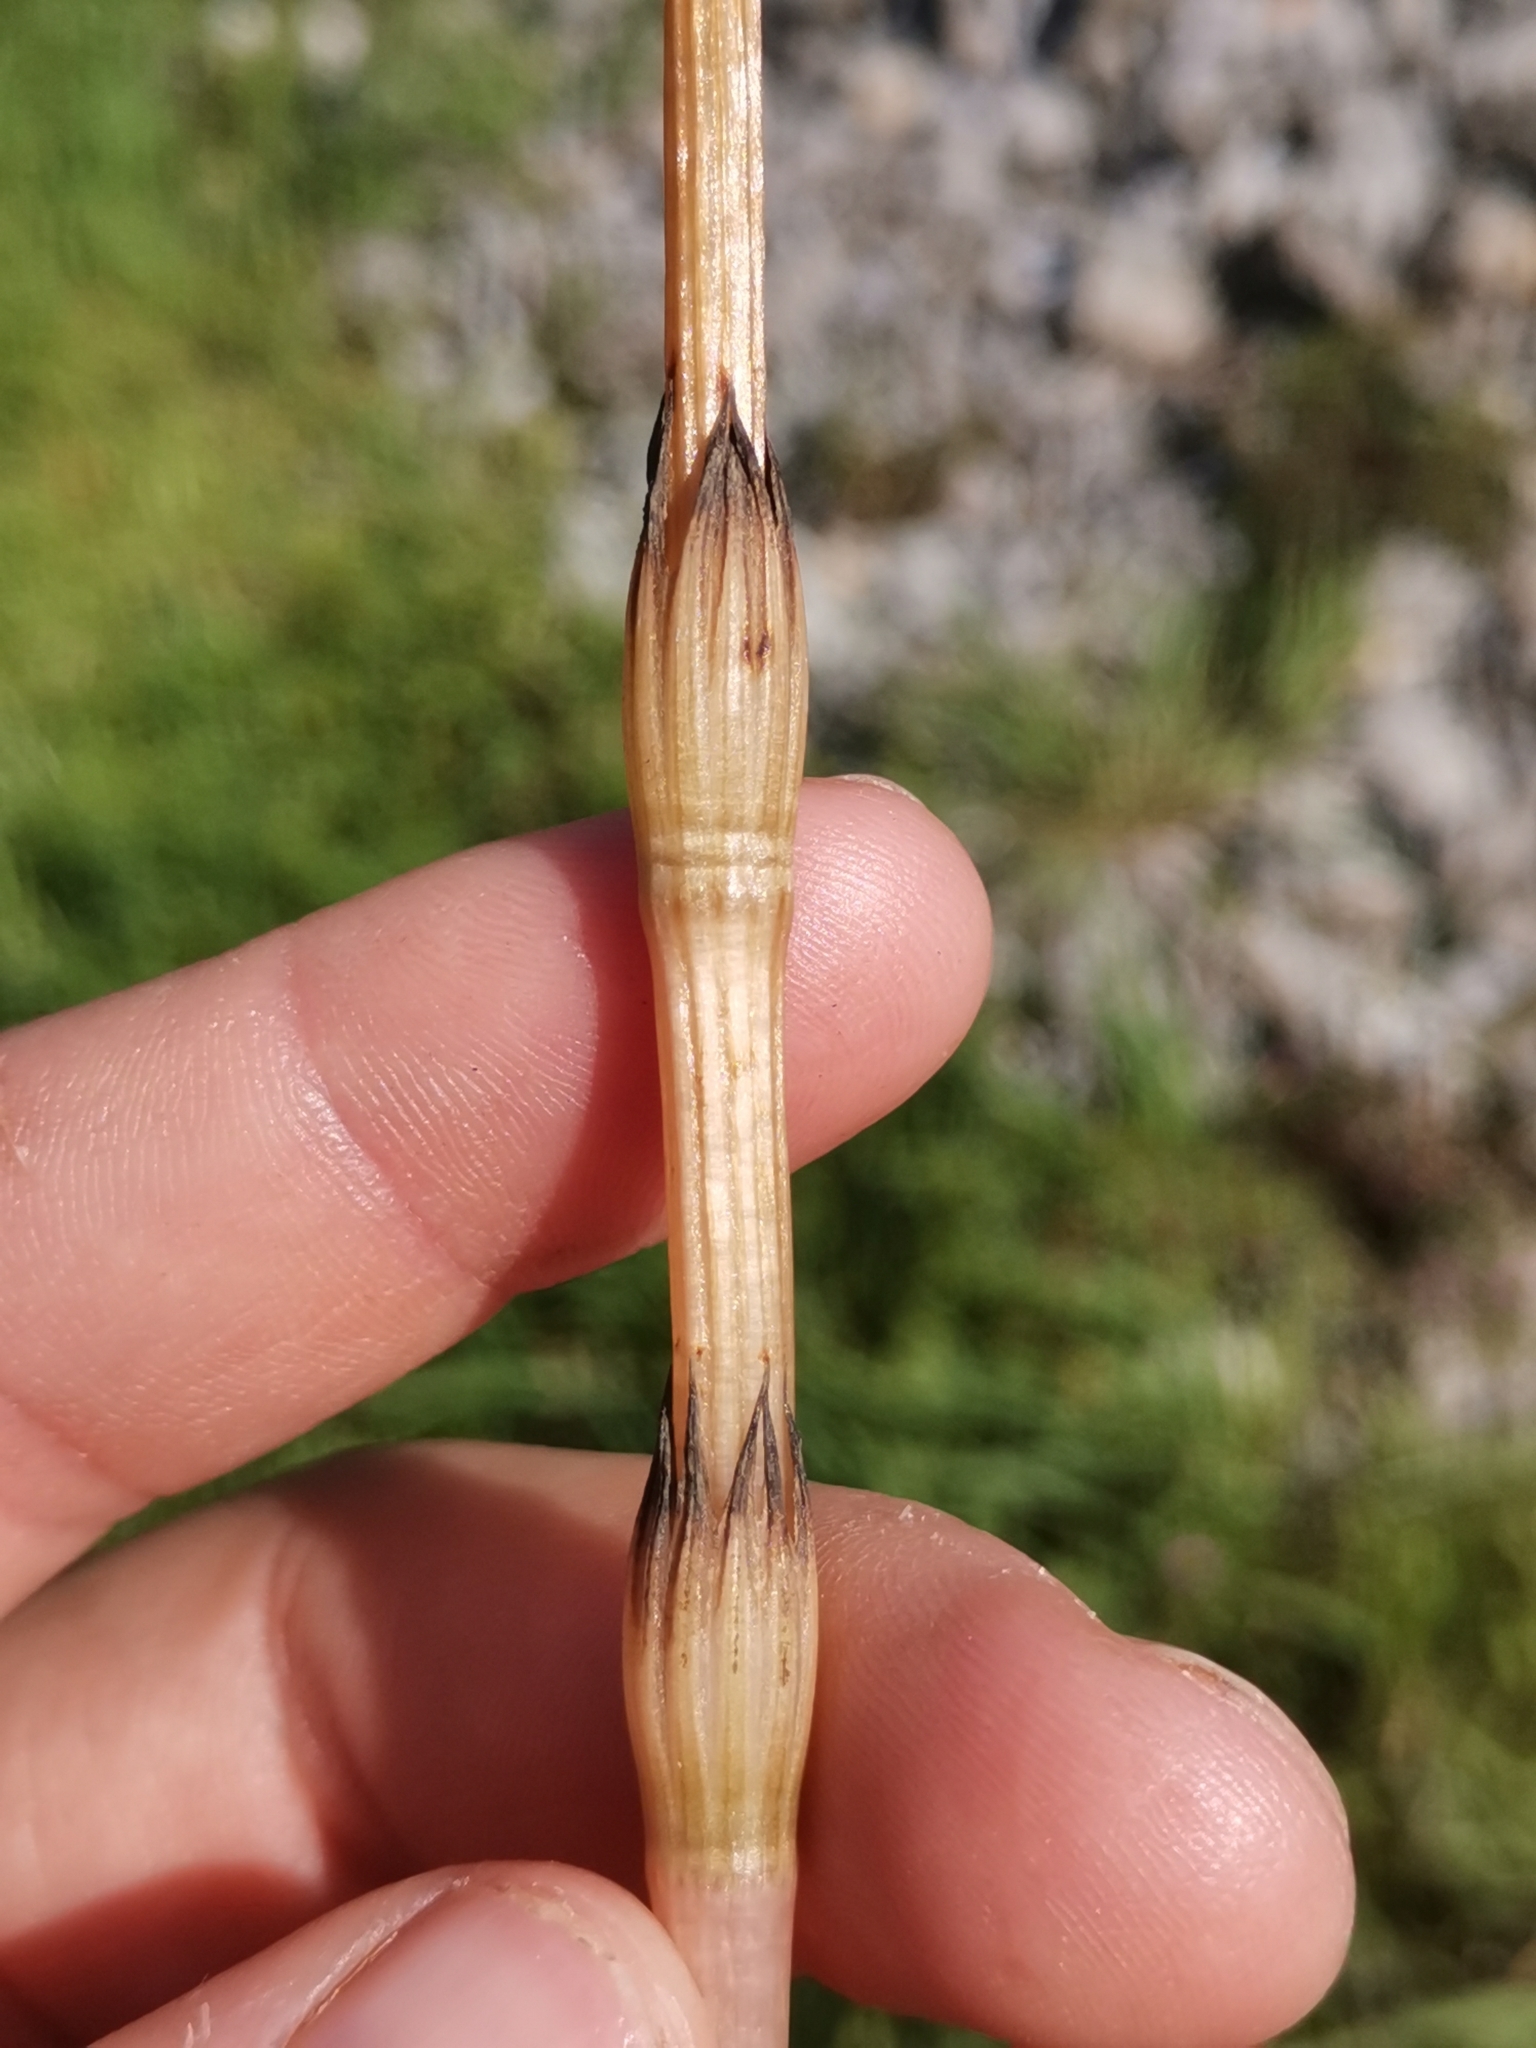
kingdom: Plantae
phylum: Tracheophyta
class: Polypodiopsida
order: Equisetales
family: Equisetaceae
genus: Equisetum
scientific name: Equisetum arvense
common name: Field horsetail
